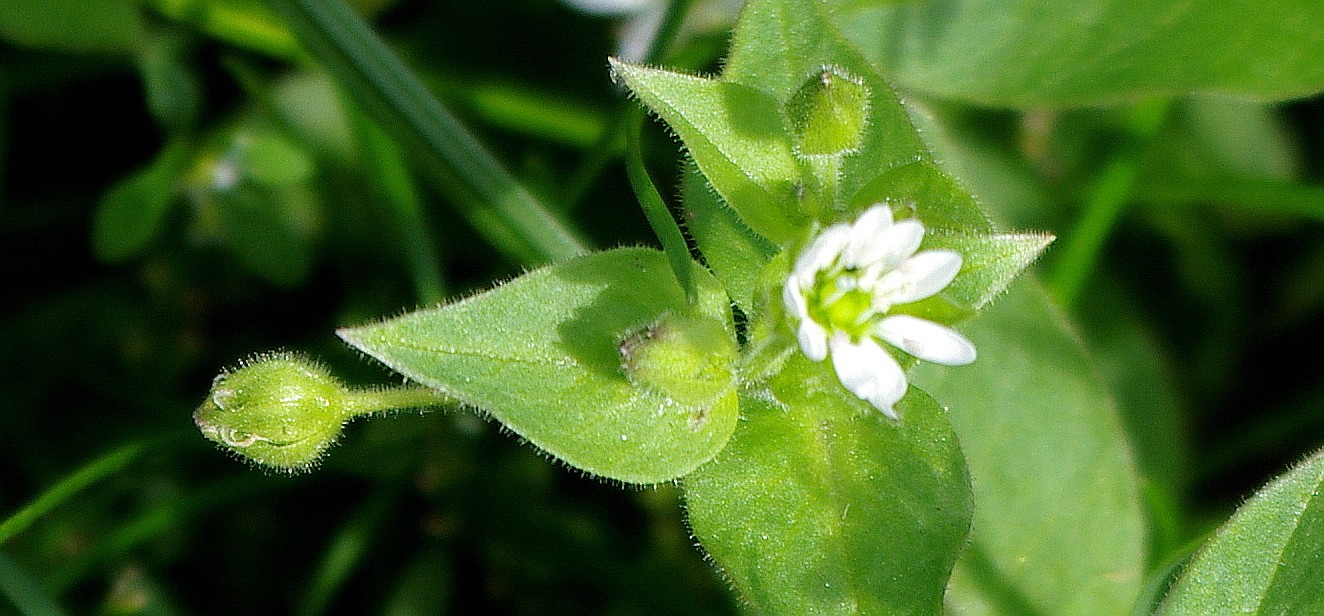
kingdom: Plantae
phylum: Tracheophyta
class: Magnoliopsida
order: Caryophyllales
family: Caryophyllaceae
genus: Stellaria
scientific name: Stellaria aquatica
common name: Water chickweed
